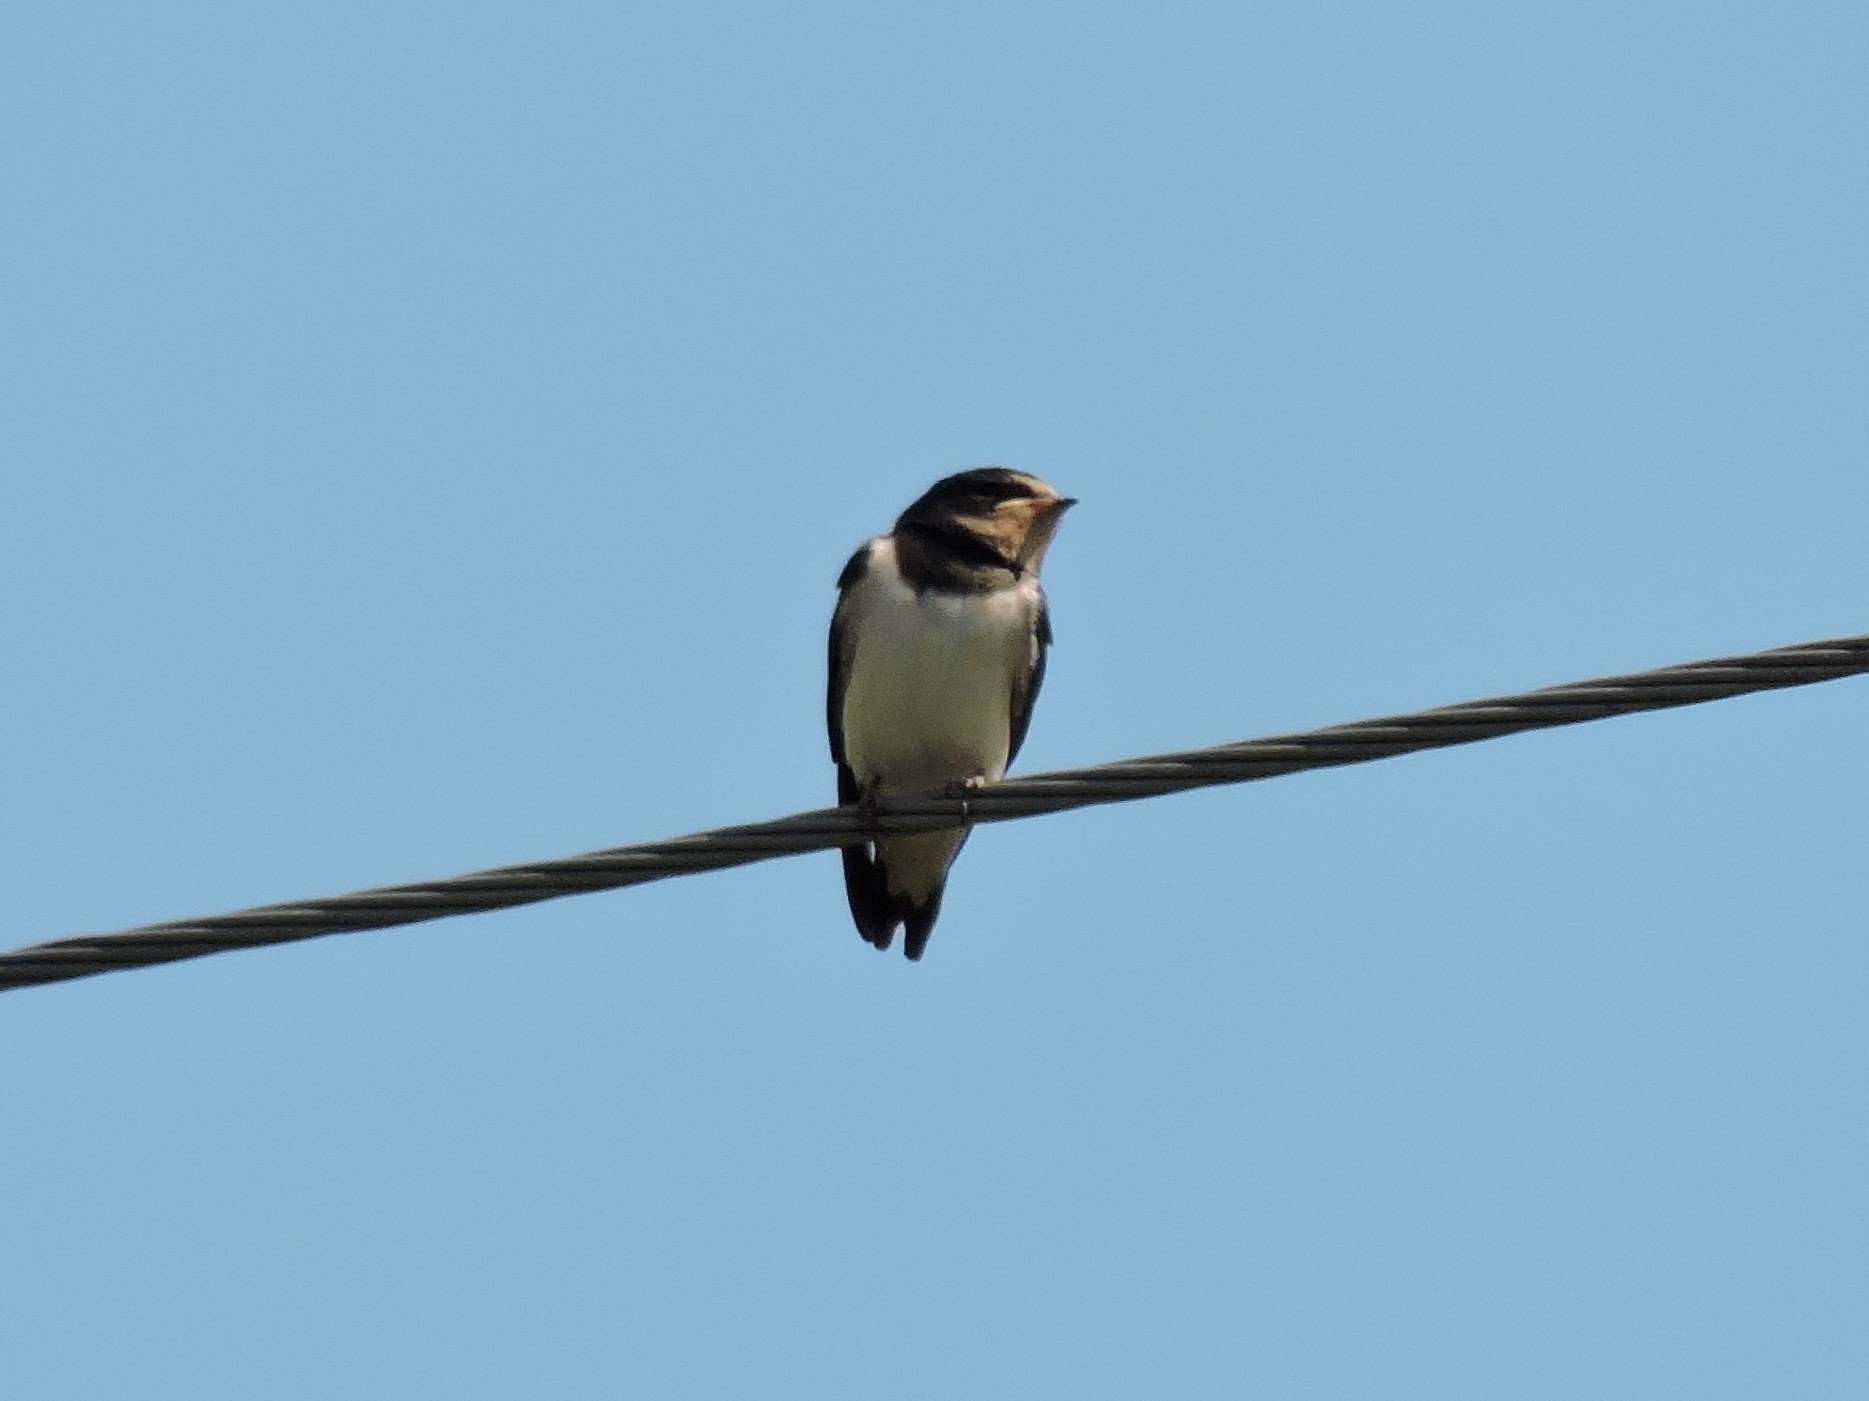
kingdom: Animalia
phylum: Chordata
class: Aves
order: Passeriformes
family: Hirundinidae
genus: Hirundo
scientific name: Hirundo rustica
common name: Barn swallow
